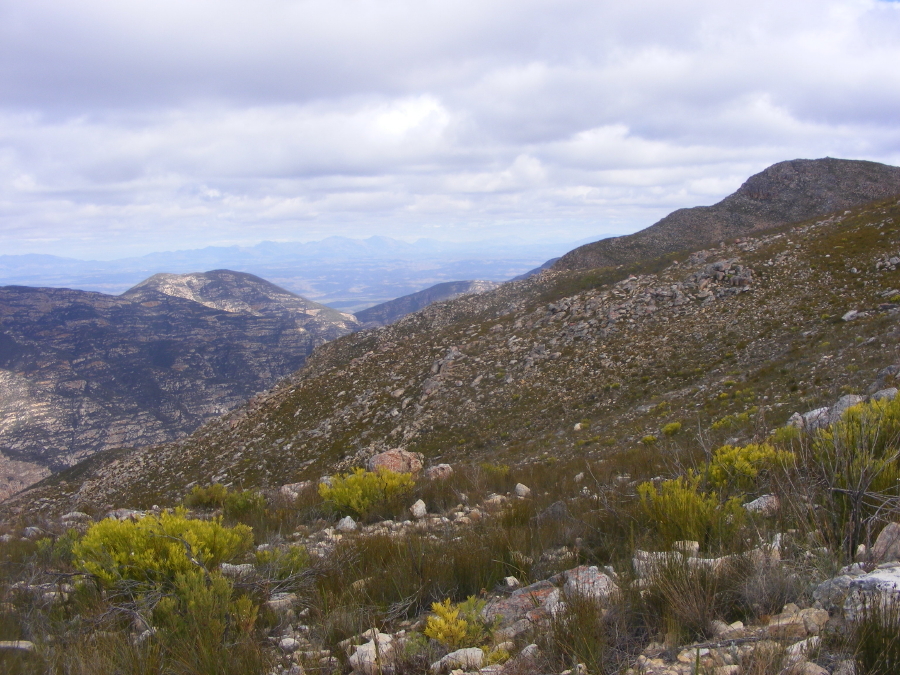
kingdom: Plantae
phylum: Tracheophyta
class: Magnoliopsida
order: Proteales
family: Proteaceae
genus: Leucadendron
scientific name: Leucadendron salignum
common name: Common sunshine conebush
